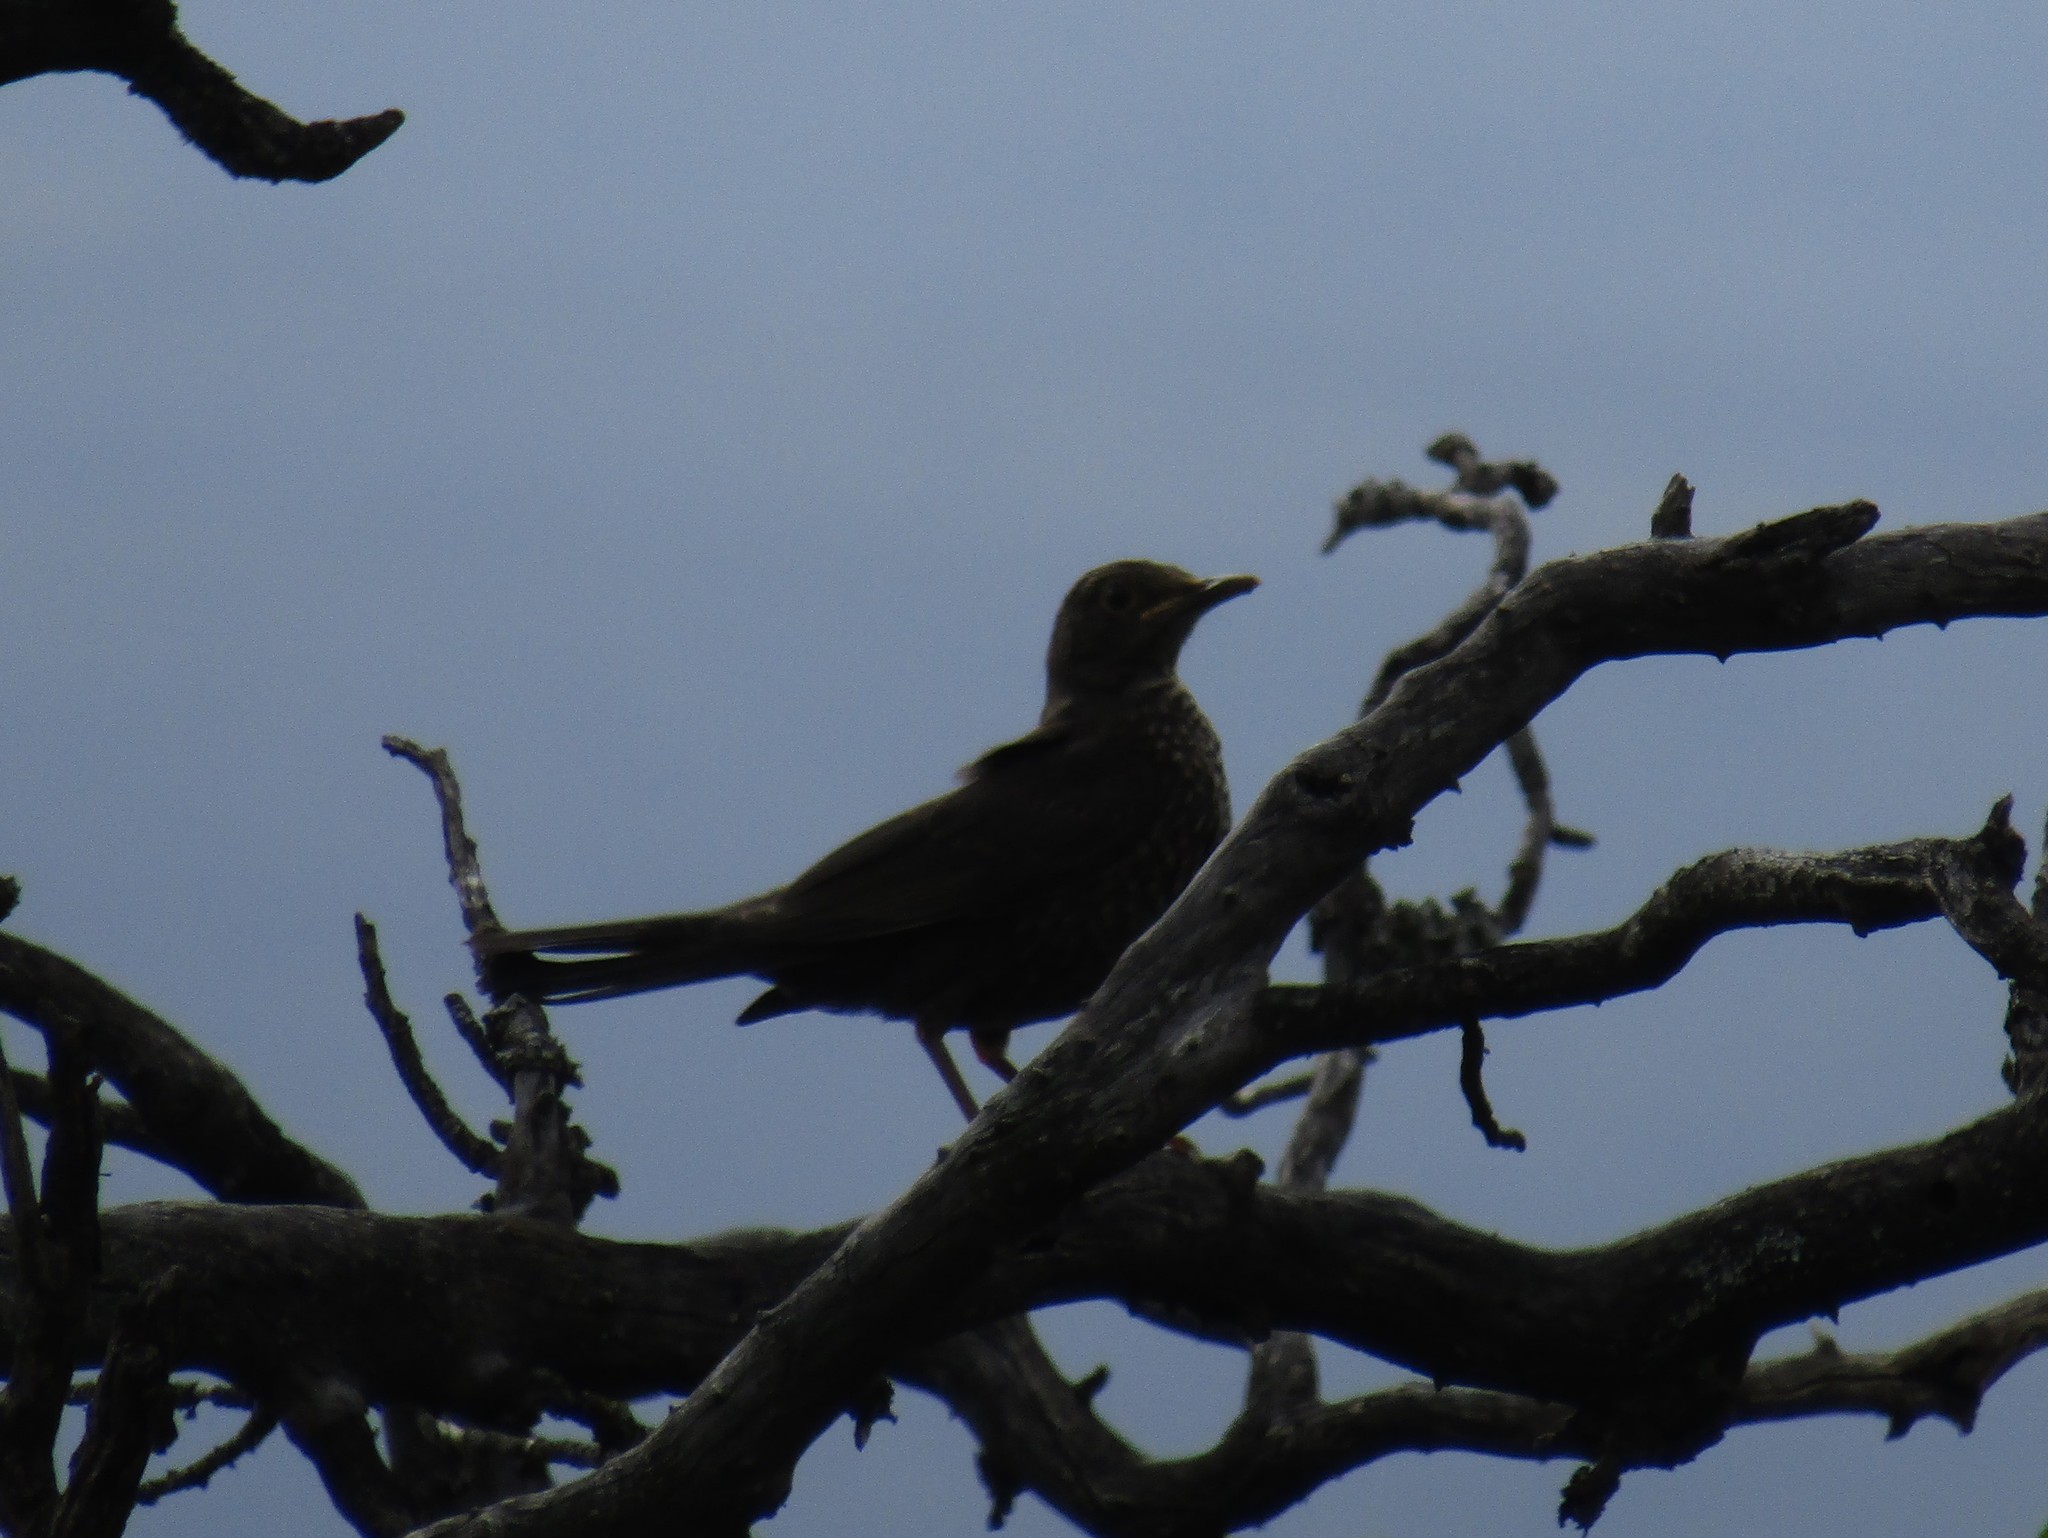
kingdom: Animalia
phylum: Chordata
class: Aves
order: Passeriformes
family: Turdidae
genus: Turdus
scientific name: Turdus chiguanco
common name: Chiguanco thrush
